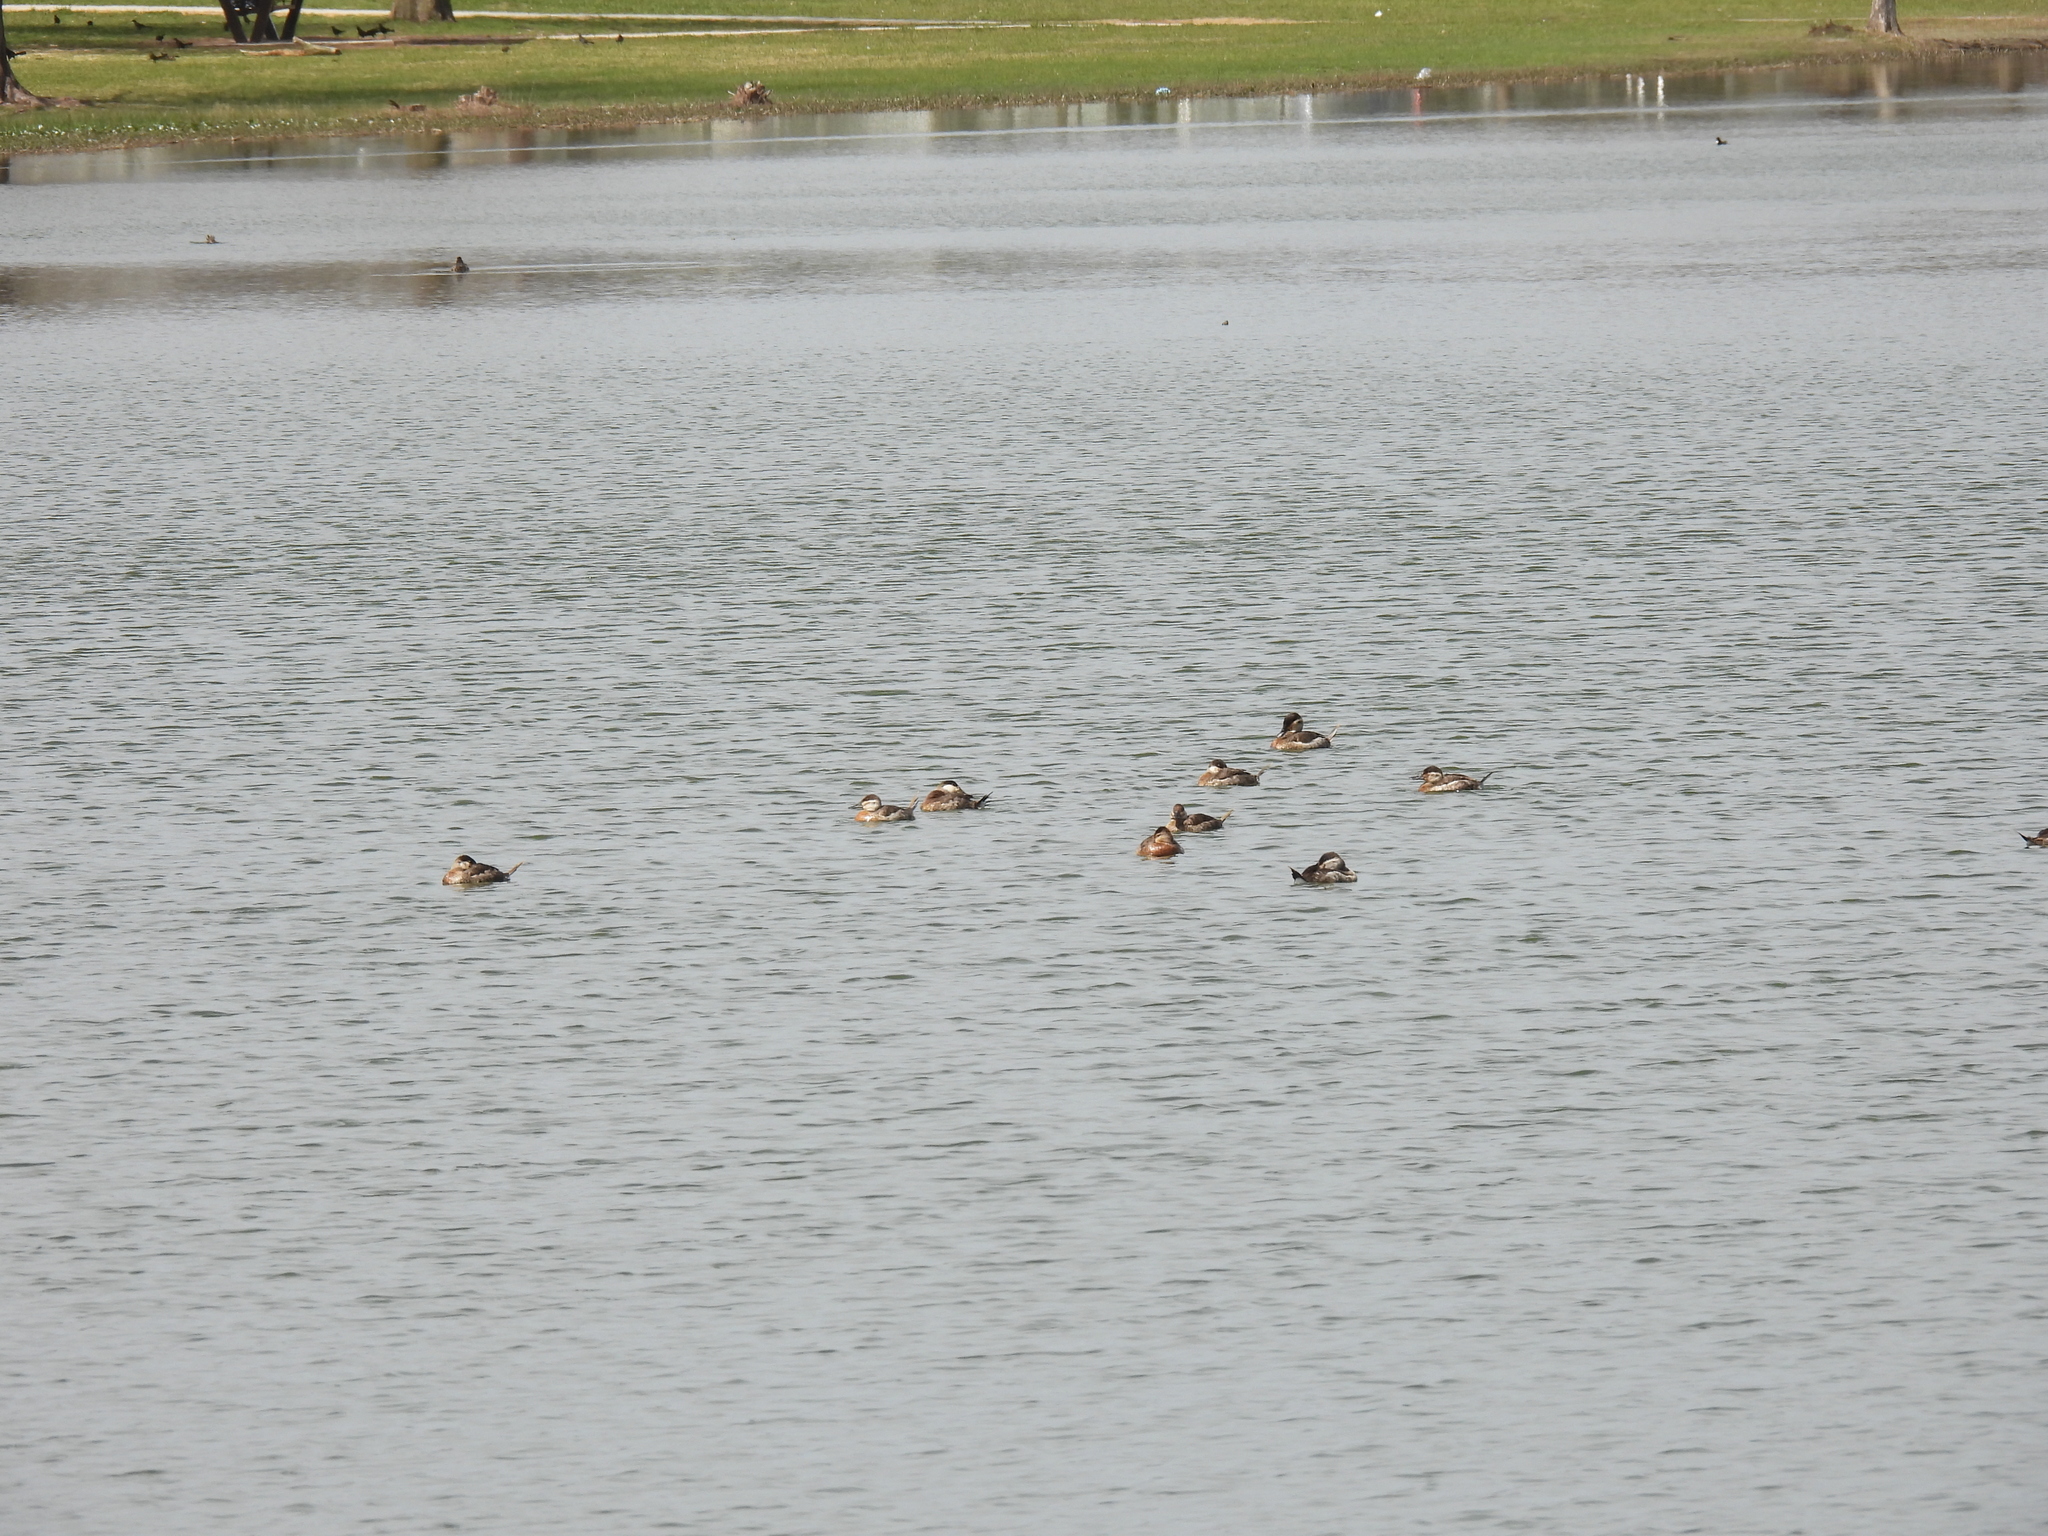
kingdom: Animalia
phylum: Chordata
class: Aves
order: Anseriformes
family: Anatidae
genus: Oxyura
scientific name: Oxyura jamaicensis
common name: Ruddy duck
